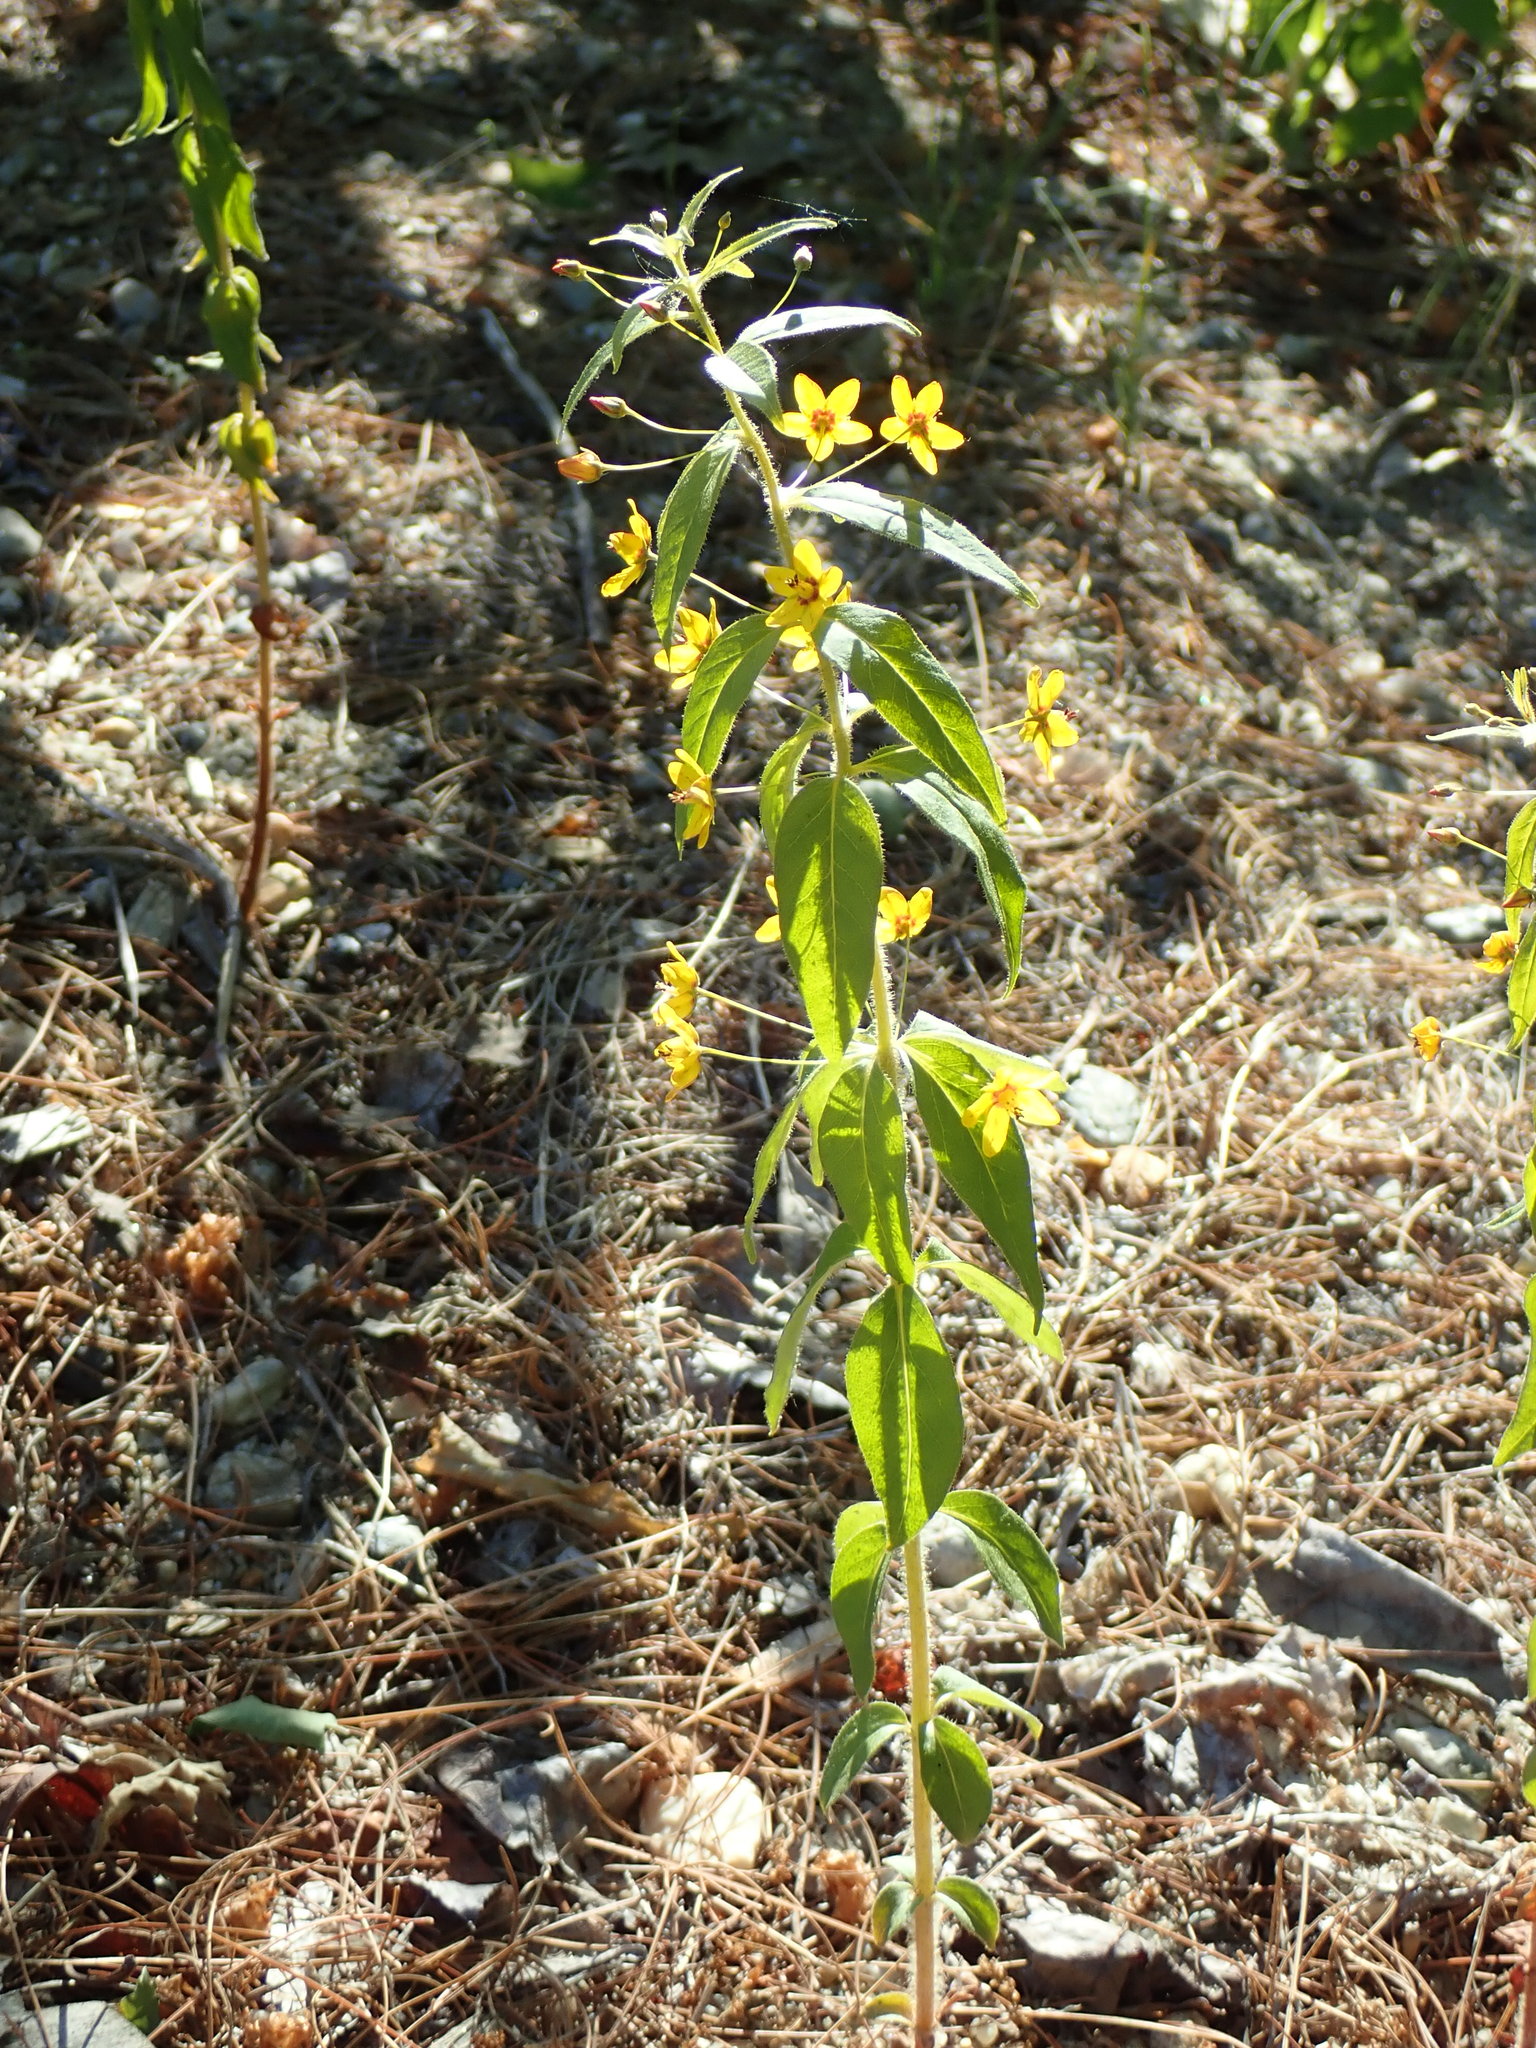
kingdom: Plantae
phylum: Tracheophyta
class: Magnoliopsida
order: Ericales
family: Primulaceae
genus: Lysimachia
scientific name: Lysimachia quadrifolia
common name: Whorled loosestrife
